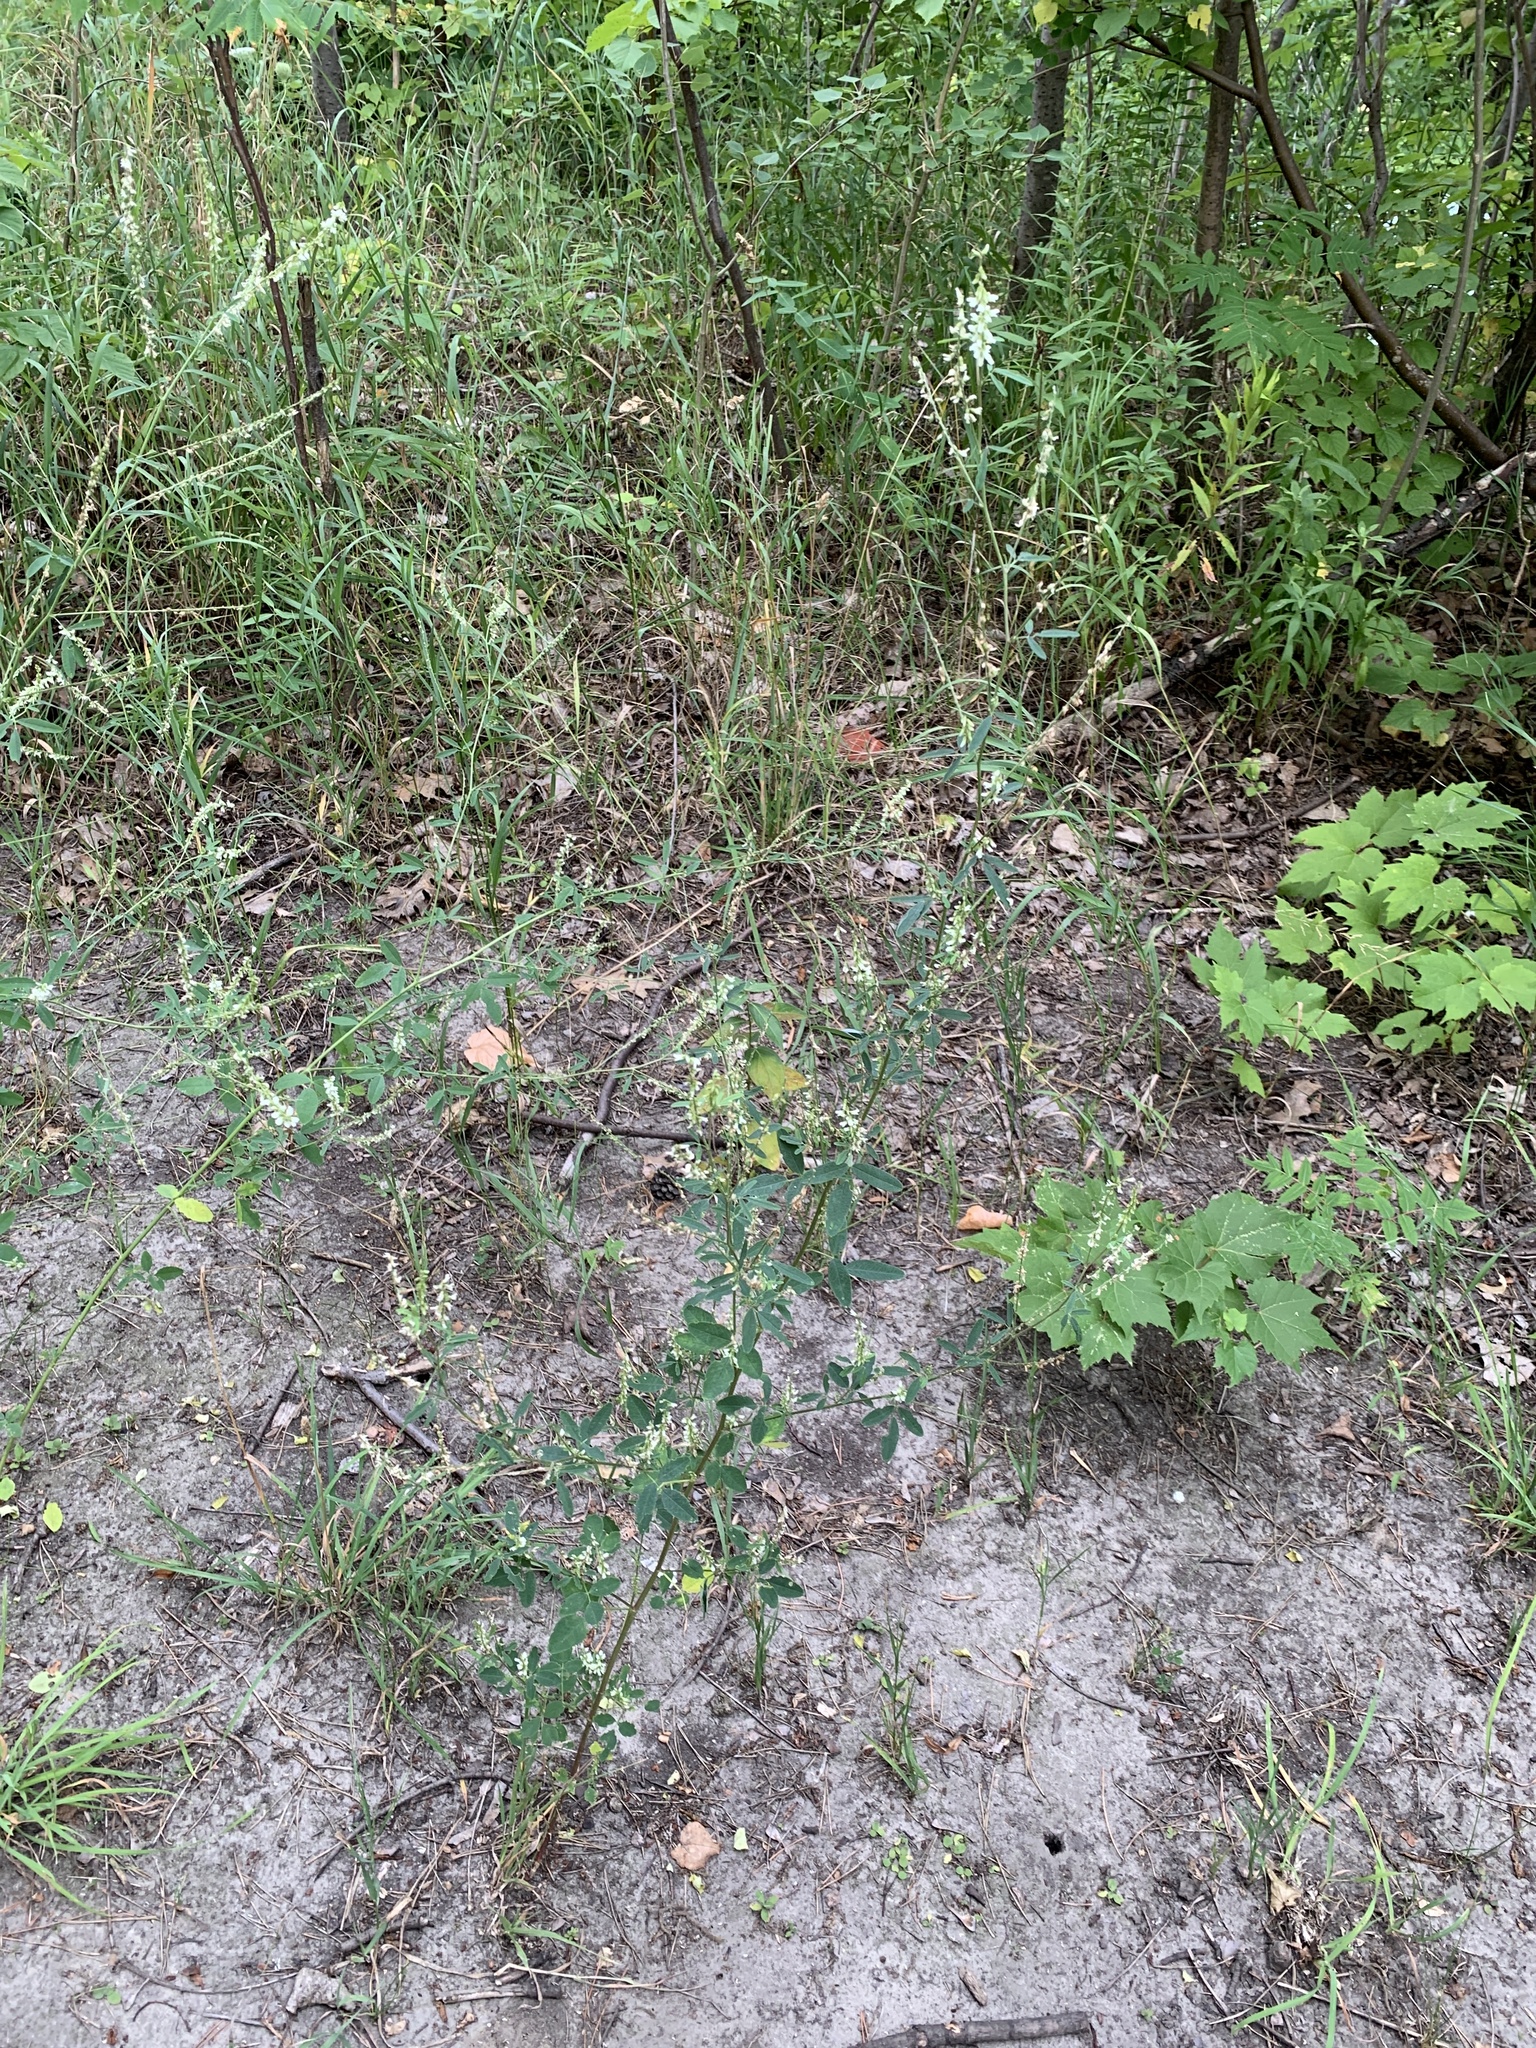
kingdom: Plantae
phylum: Tracheophyta
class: Magnoliopsida
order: Fabales
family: Fabaceae
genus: Melilotus
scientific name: Melilotus albus
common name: White melilot
